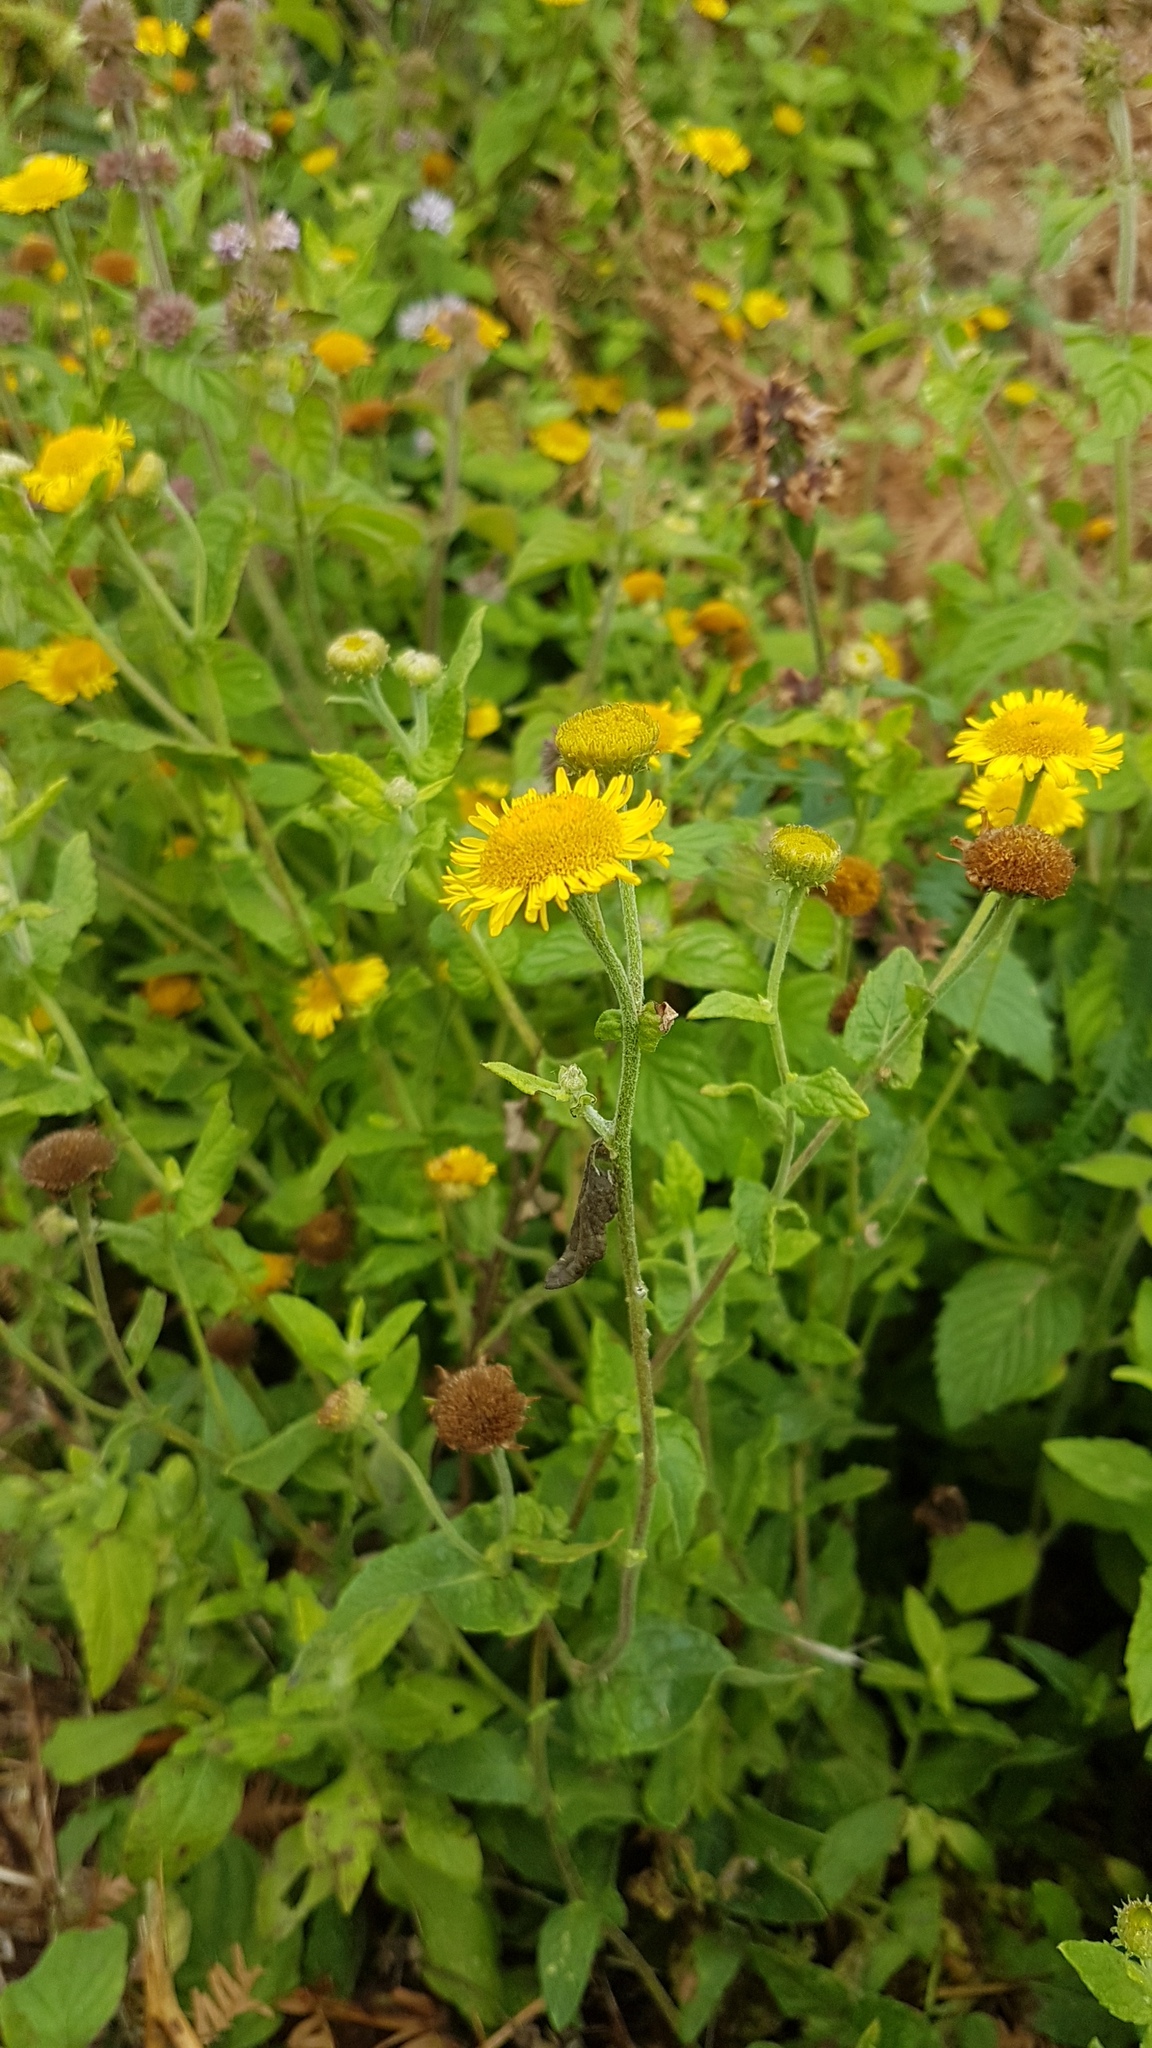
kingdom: Plantae
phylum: Tracheophyta
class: Magnoliopsida
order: Asterales
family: Asteraceae
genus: Pulicaria
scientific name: Pulicaria dysenterica
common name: Common fleabane
